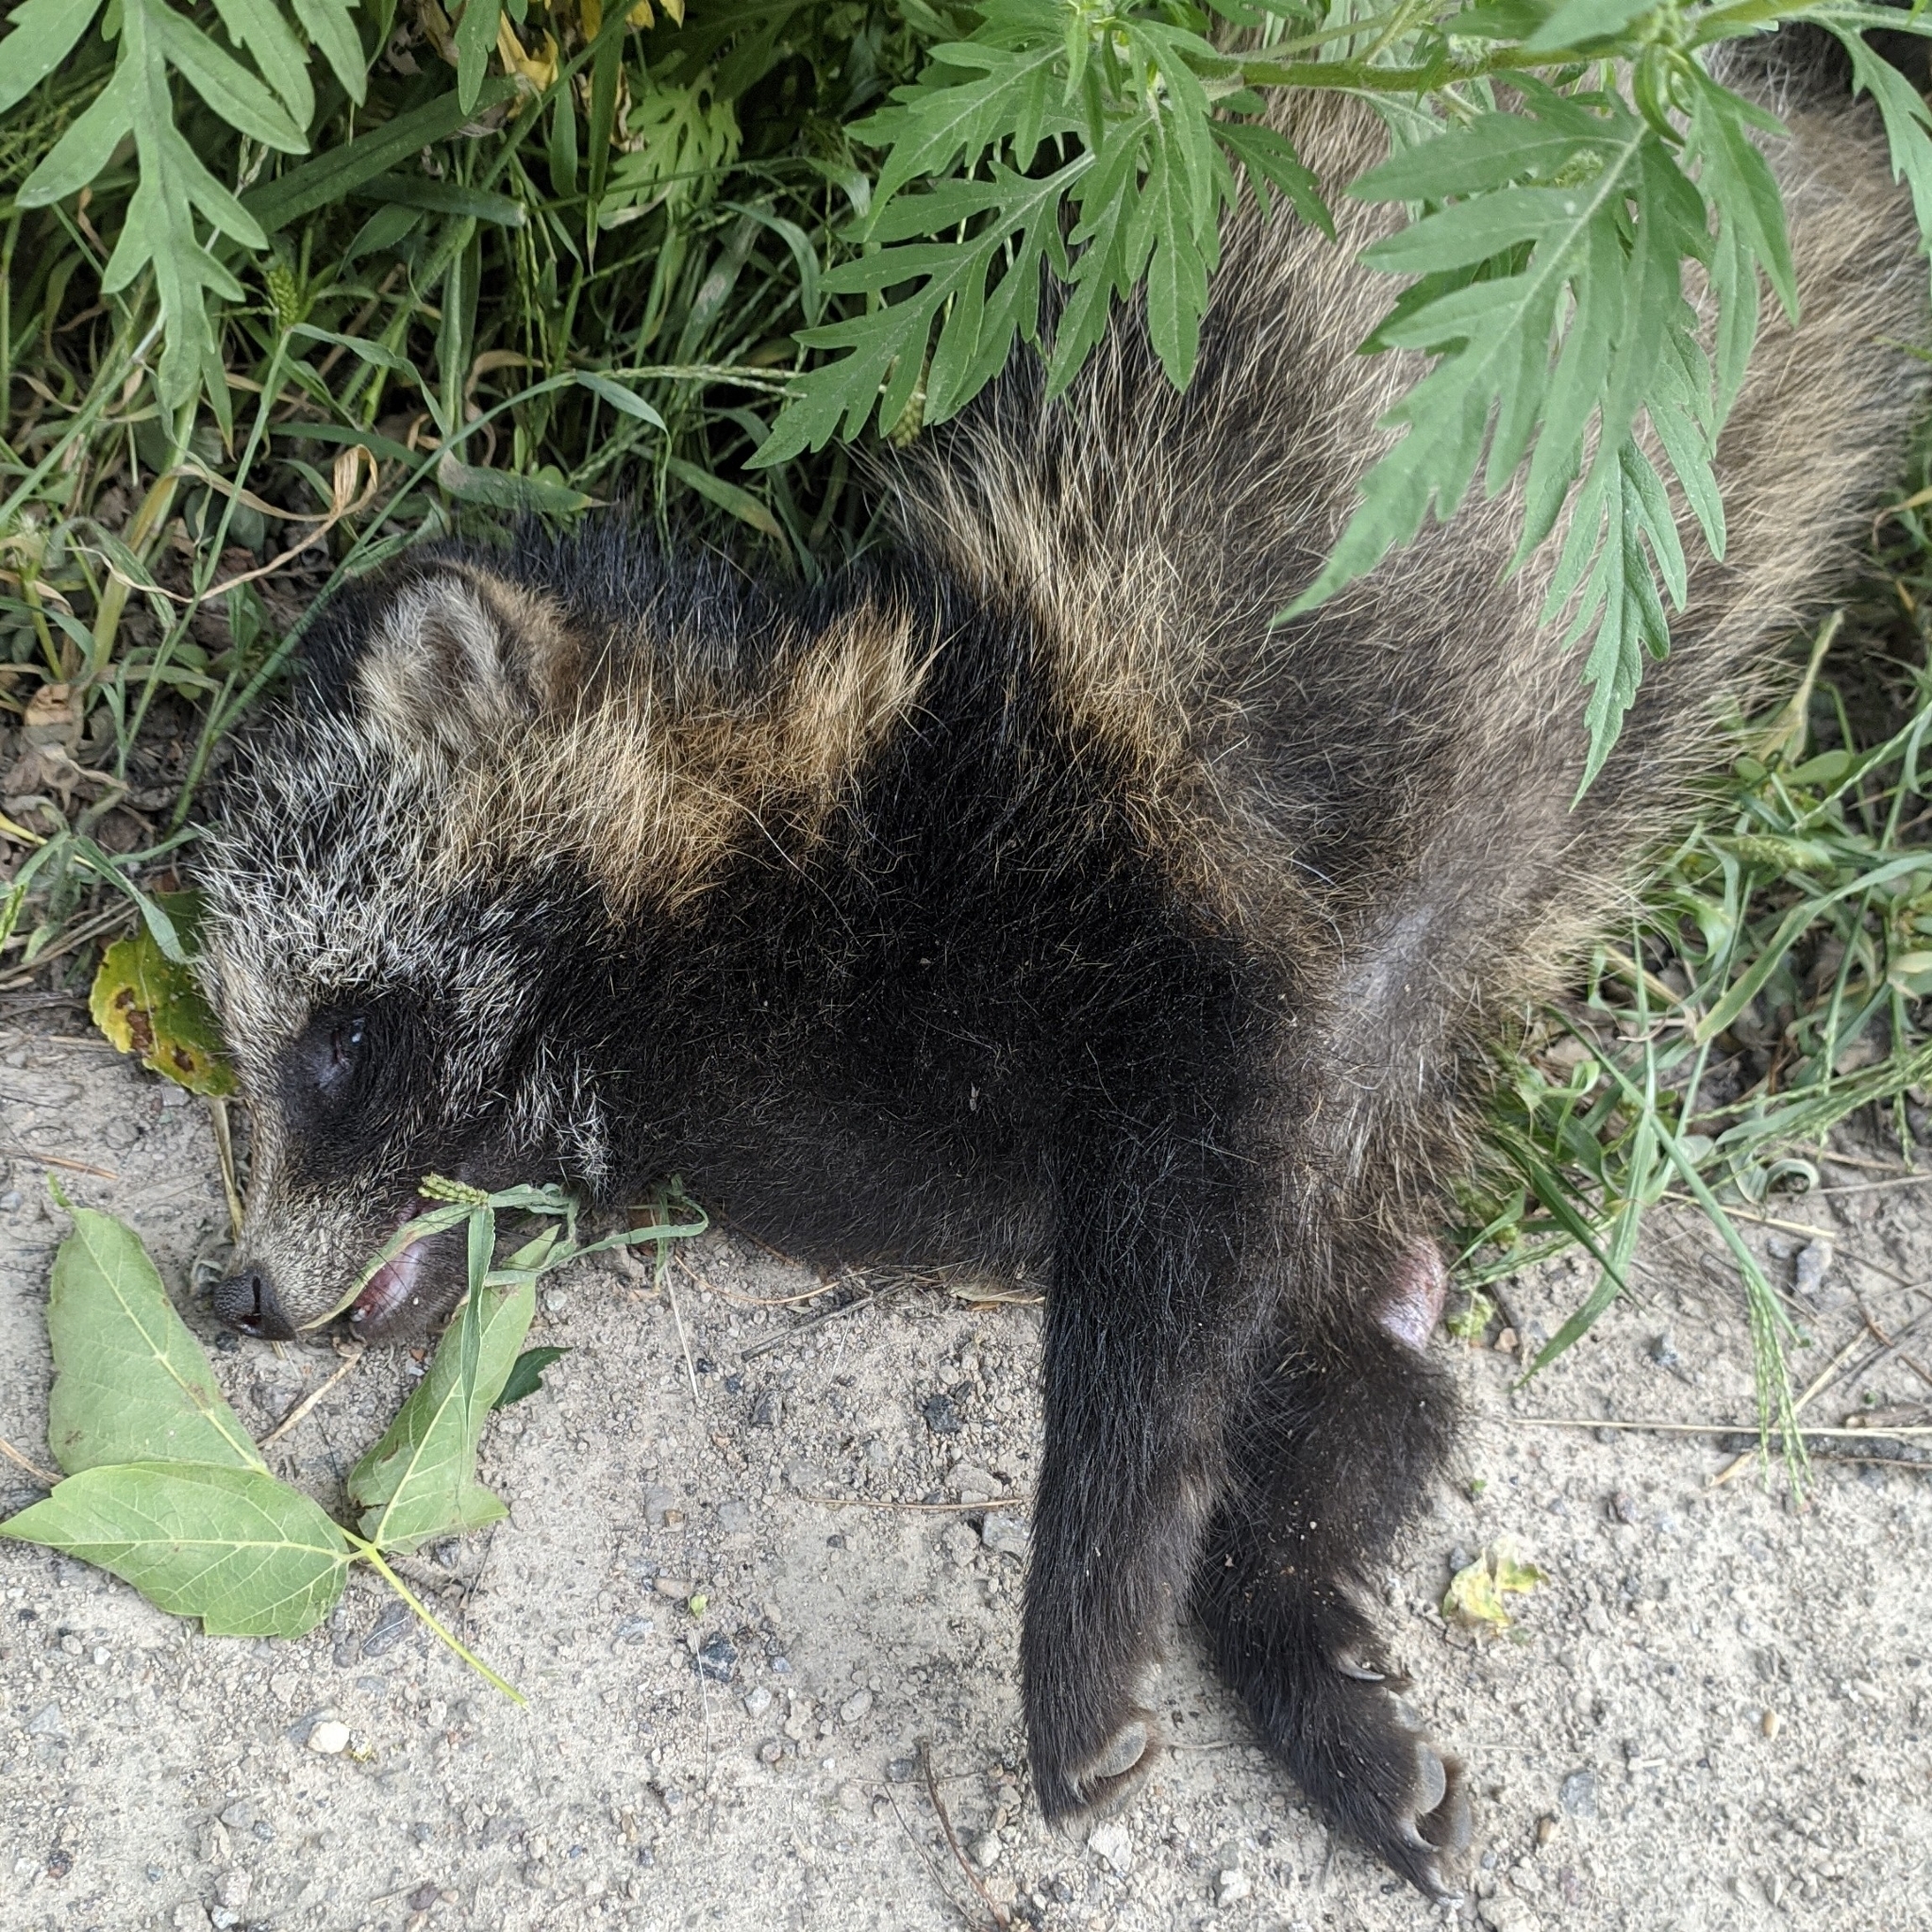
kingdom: Animalia
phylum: Chordata
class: Mammalia
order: Carnivora
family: Canidae
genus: Nyctereutes
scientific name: Nyctereutes procyonoides
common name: Raccoon dog
